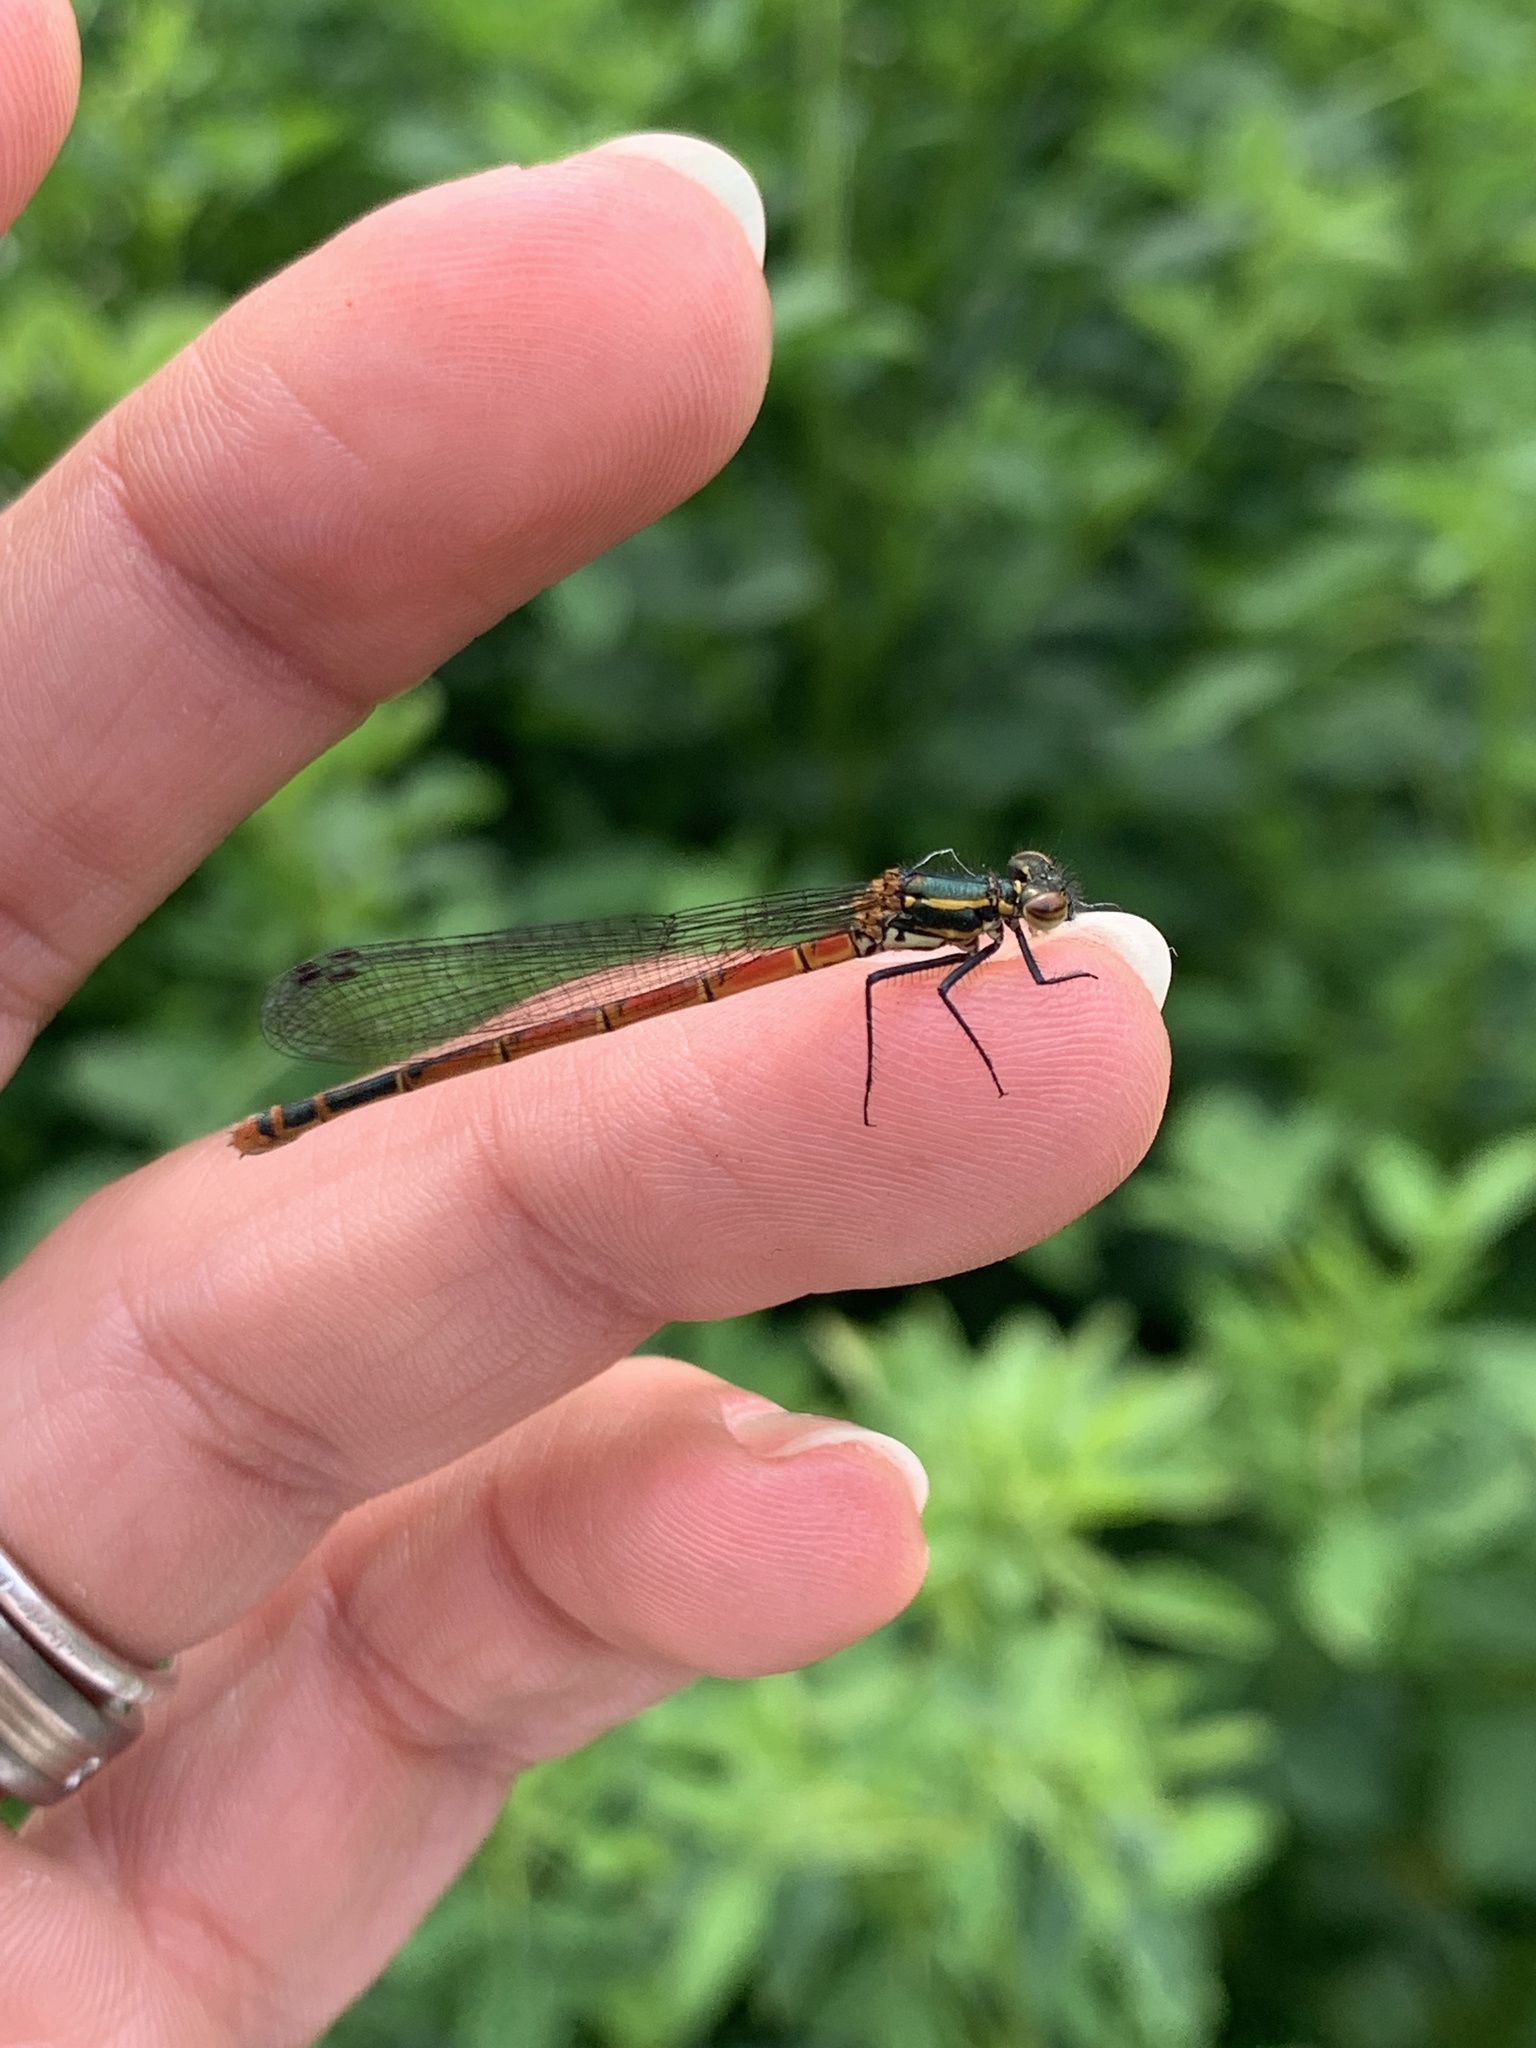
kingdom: Animalia
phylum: Arthropoda
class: Insecta
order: Odonata
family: Coenagrionidae
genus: Pyrrhosoma
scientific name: Pyrrhosoma nymphula
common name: Large red damsel
